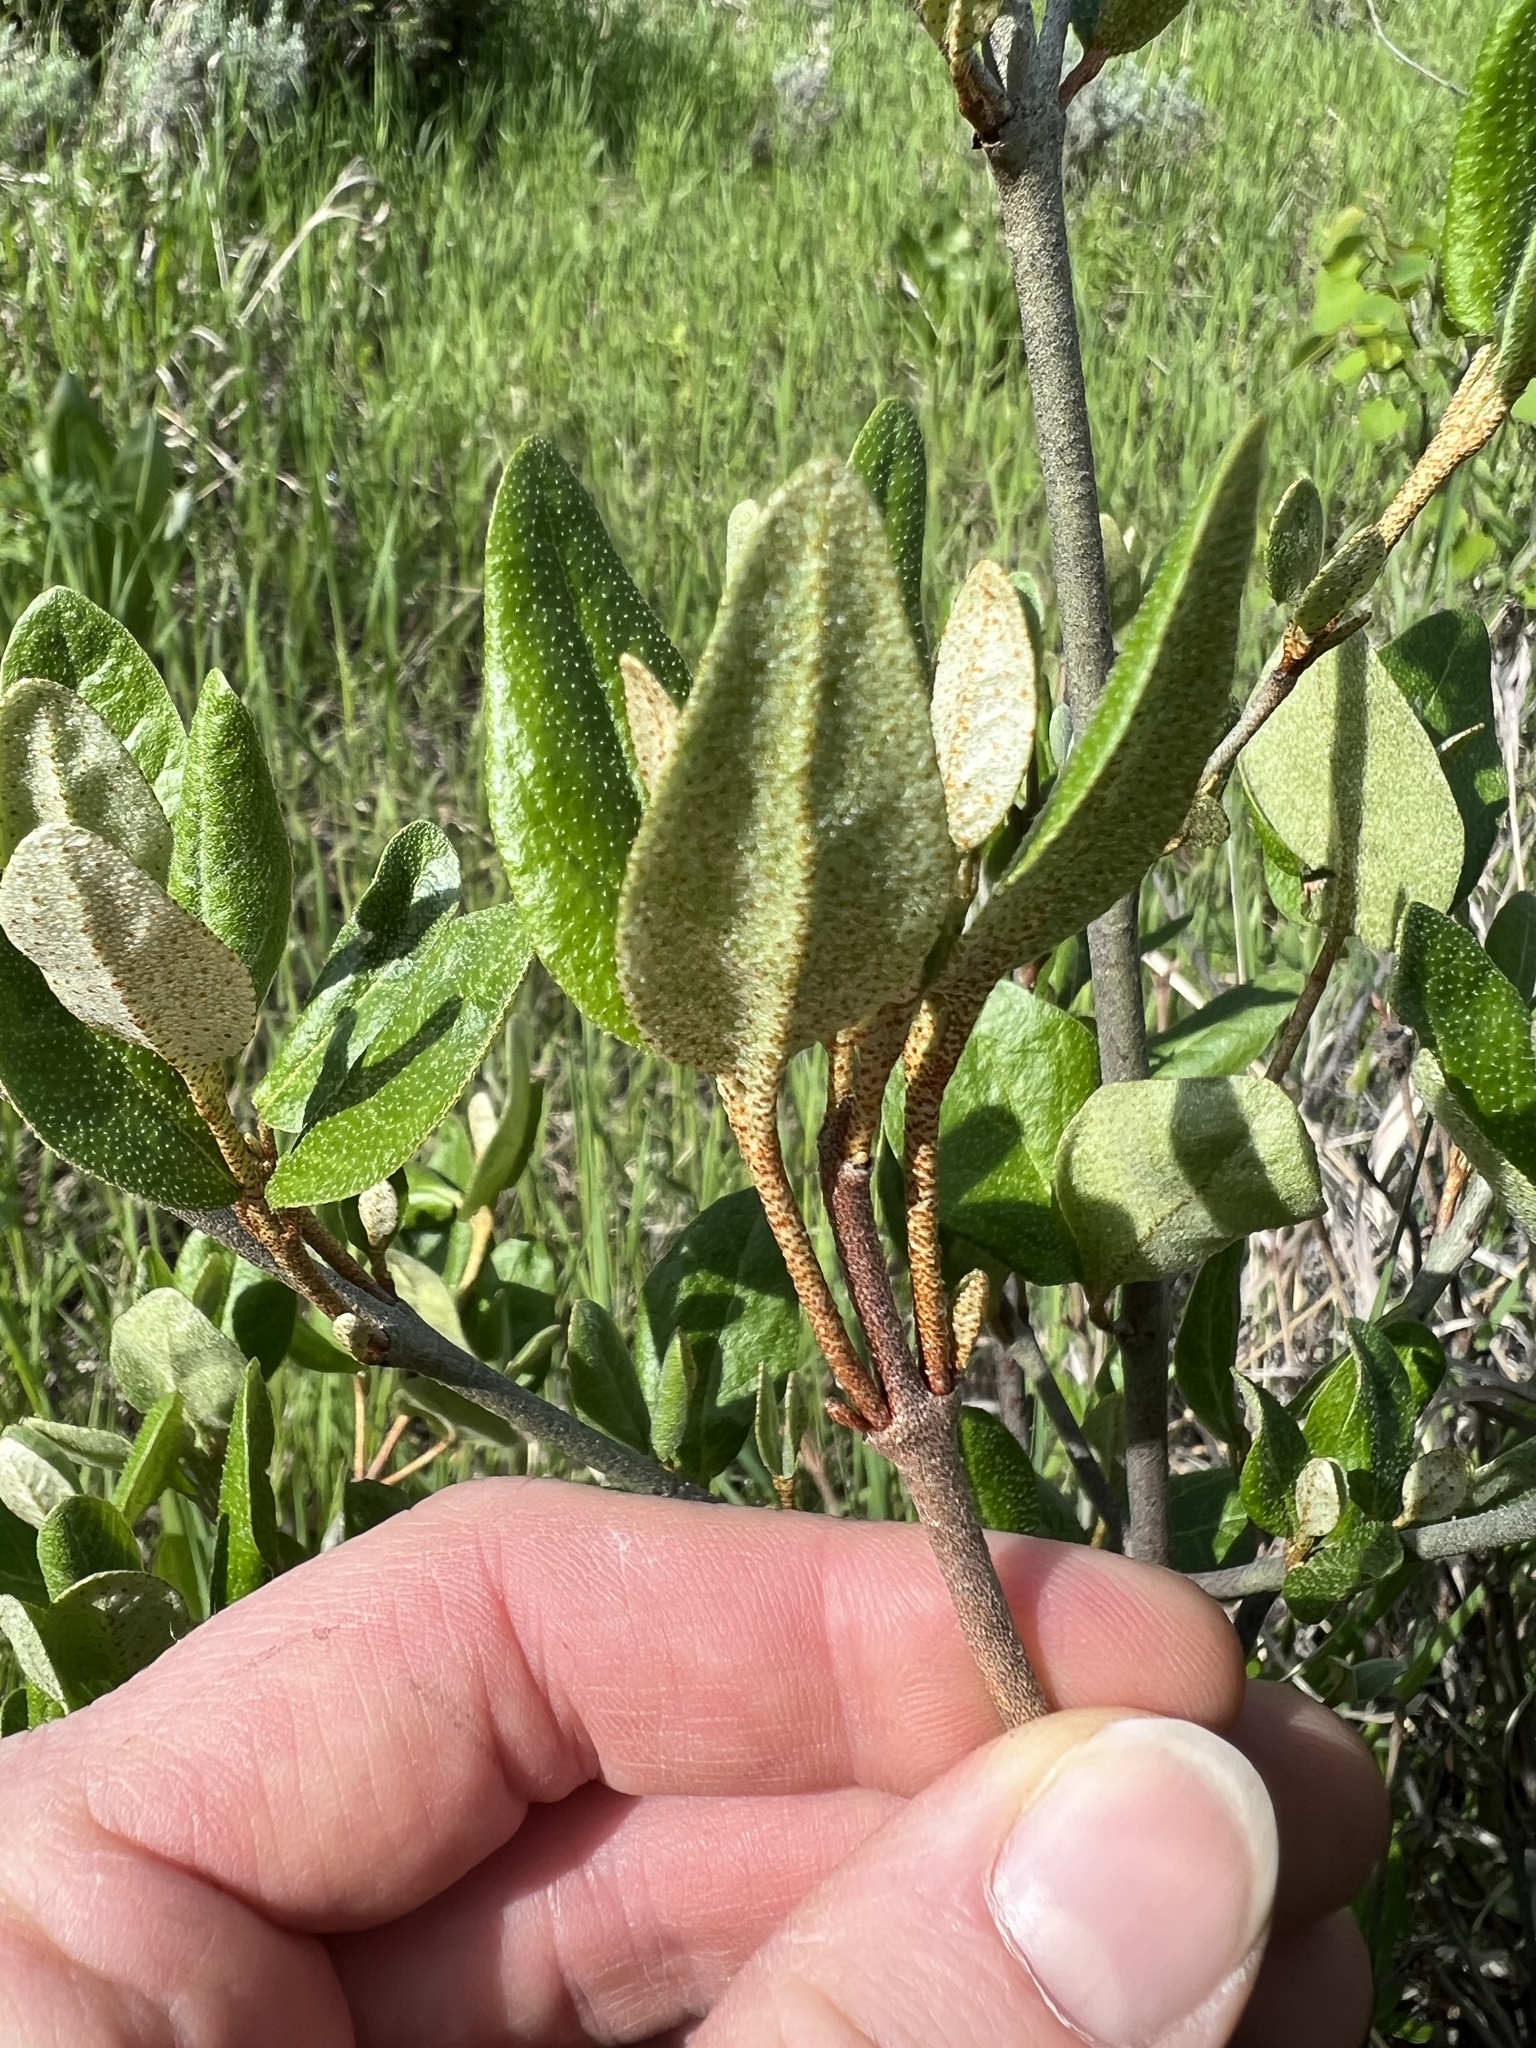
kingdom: Plantae
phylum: Tracheophyta
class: Magnoliopsida
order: Rosales
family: Elaeagnaceae
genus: Shepherdia
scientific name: Shepherdia canadensis
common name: Soapberry
